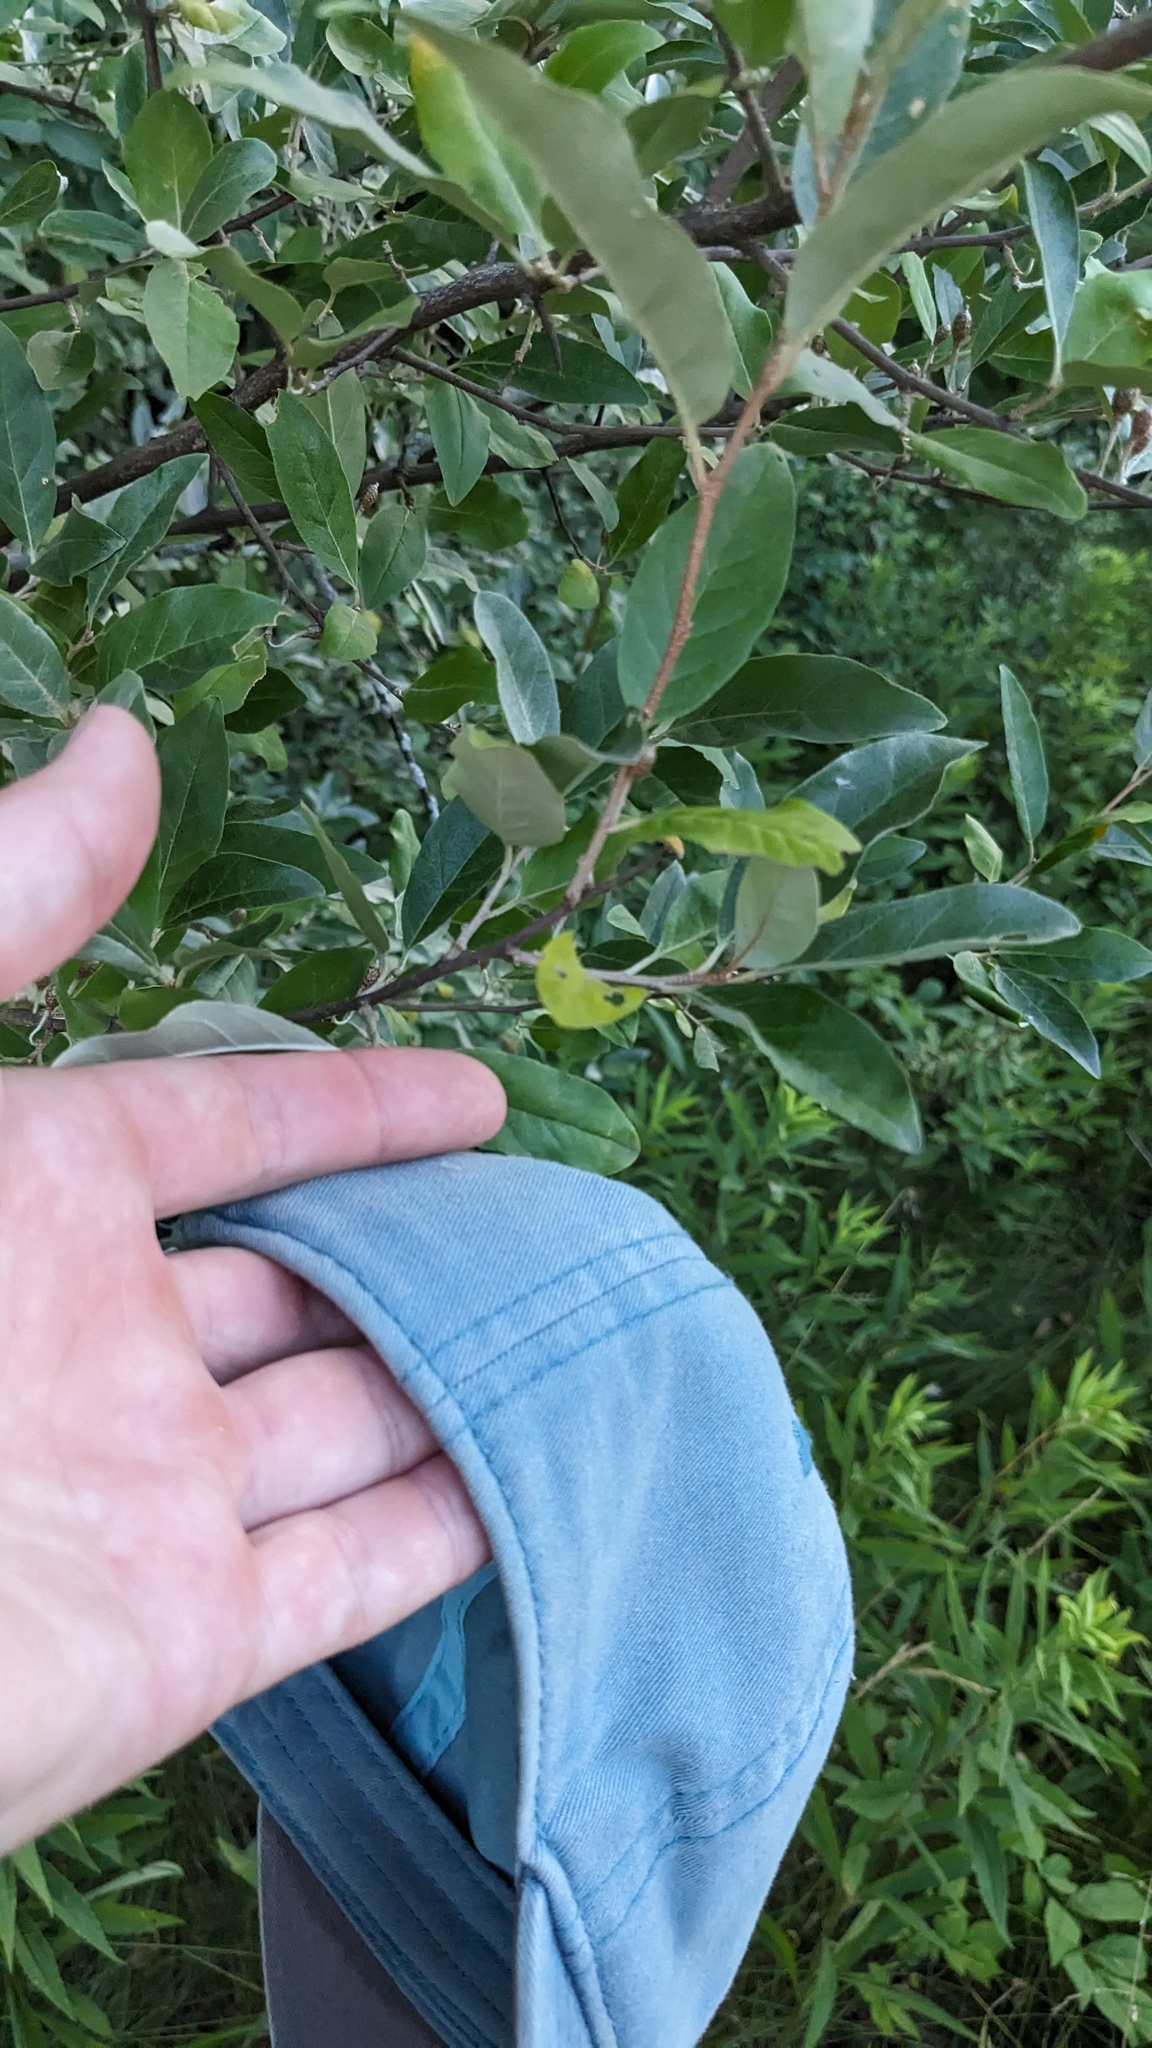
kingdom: Plantae
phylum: Tracheophyta
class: Magnoliopsida
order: Rosales
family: Elaeagnaceae
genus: Elaeagnus
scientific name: Elaeagnus umbellata
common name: Autumn olive
